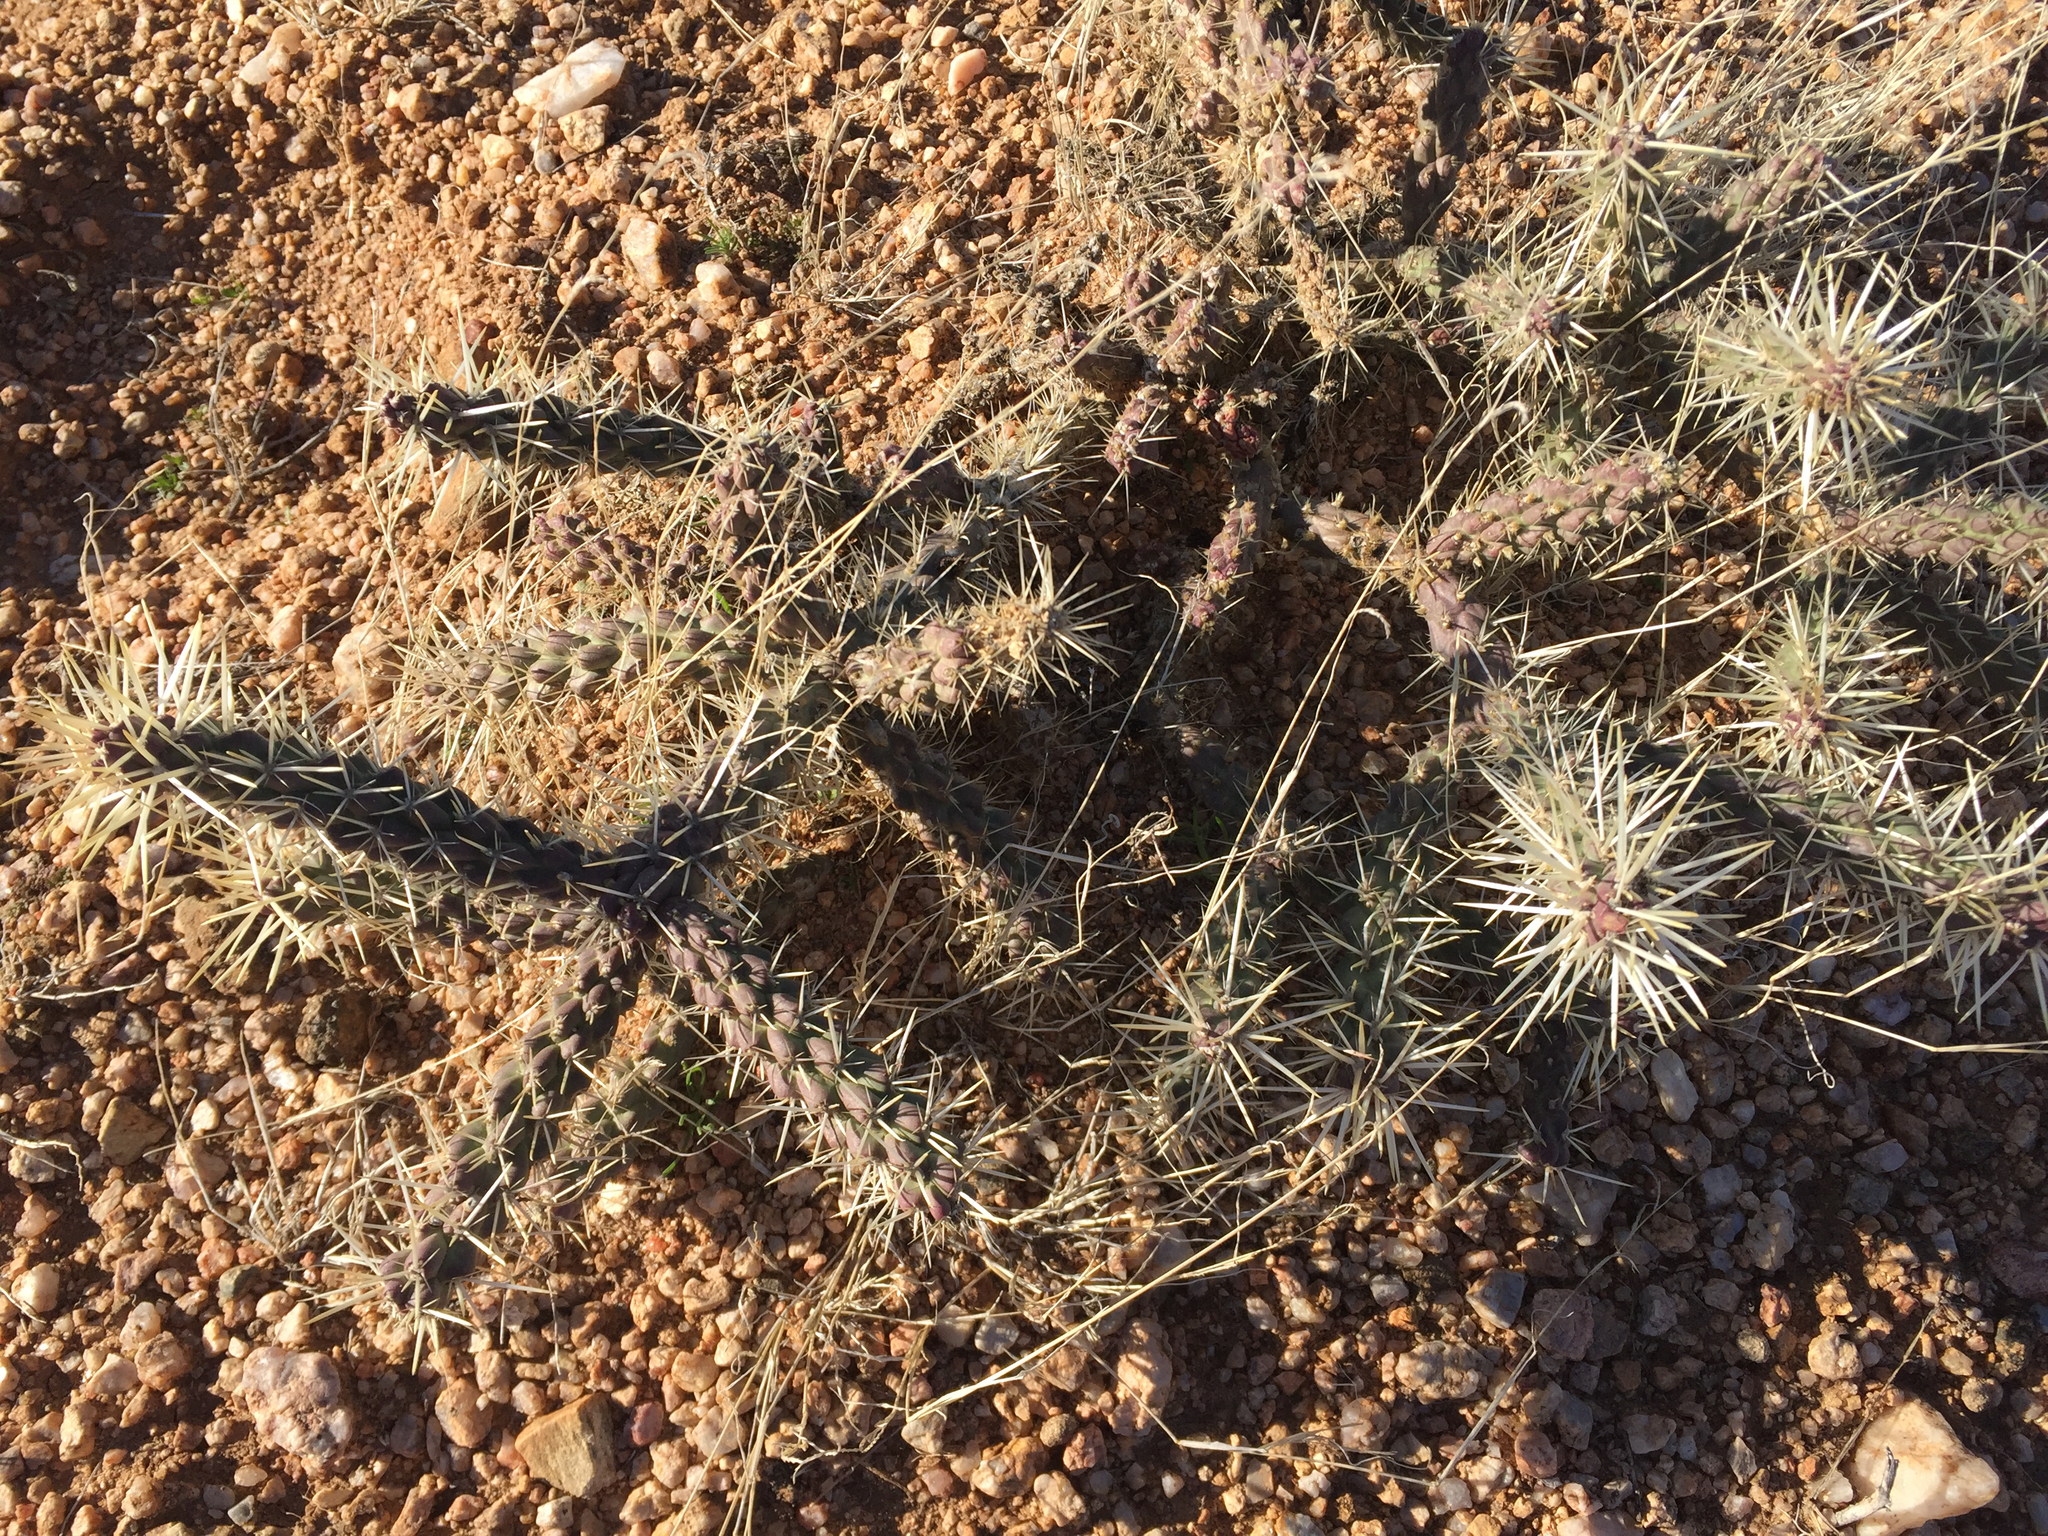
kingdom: Plantae
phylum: Tracheophyta
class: Magnoliopsida
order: Caryophyllales
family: Cactaceae
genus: Cylindropuntia
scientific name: Cylindropuntia whipplei
